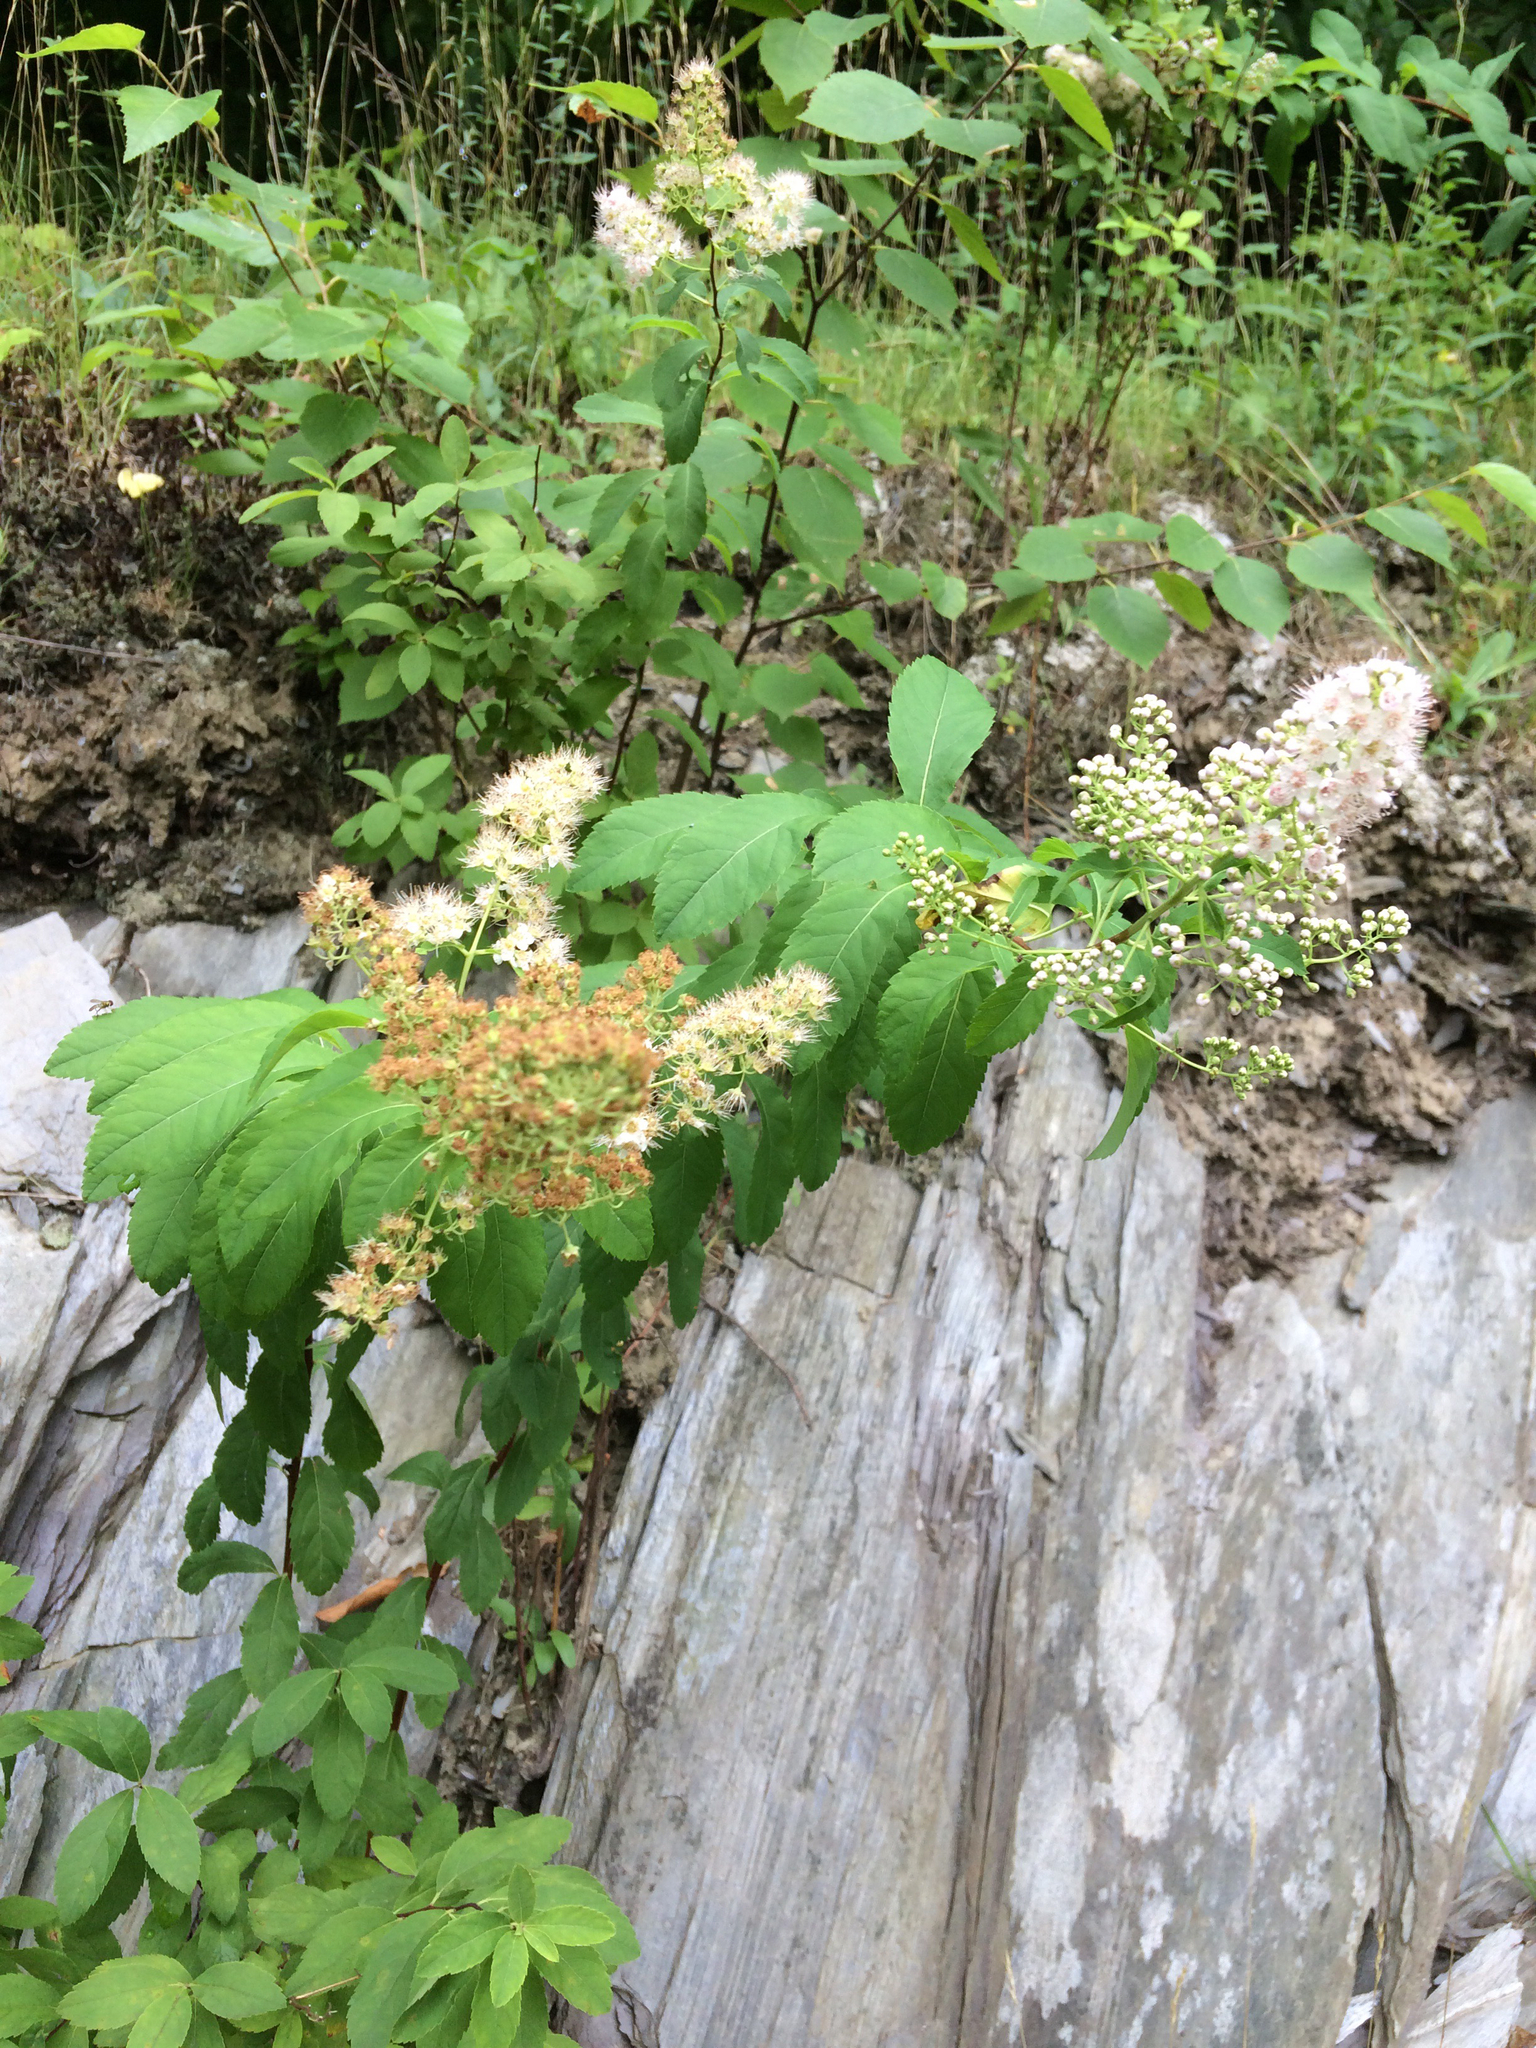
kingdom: Plantae
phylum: Tracheophyta
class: Magnoliopsida
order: Rosales
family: Rosaceae
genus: Spiraea
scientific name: Spiraea alba
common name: Pale bridewort
